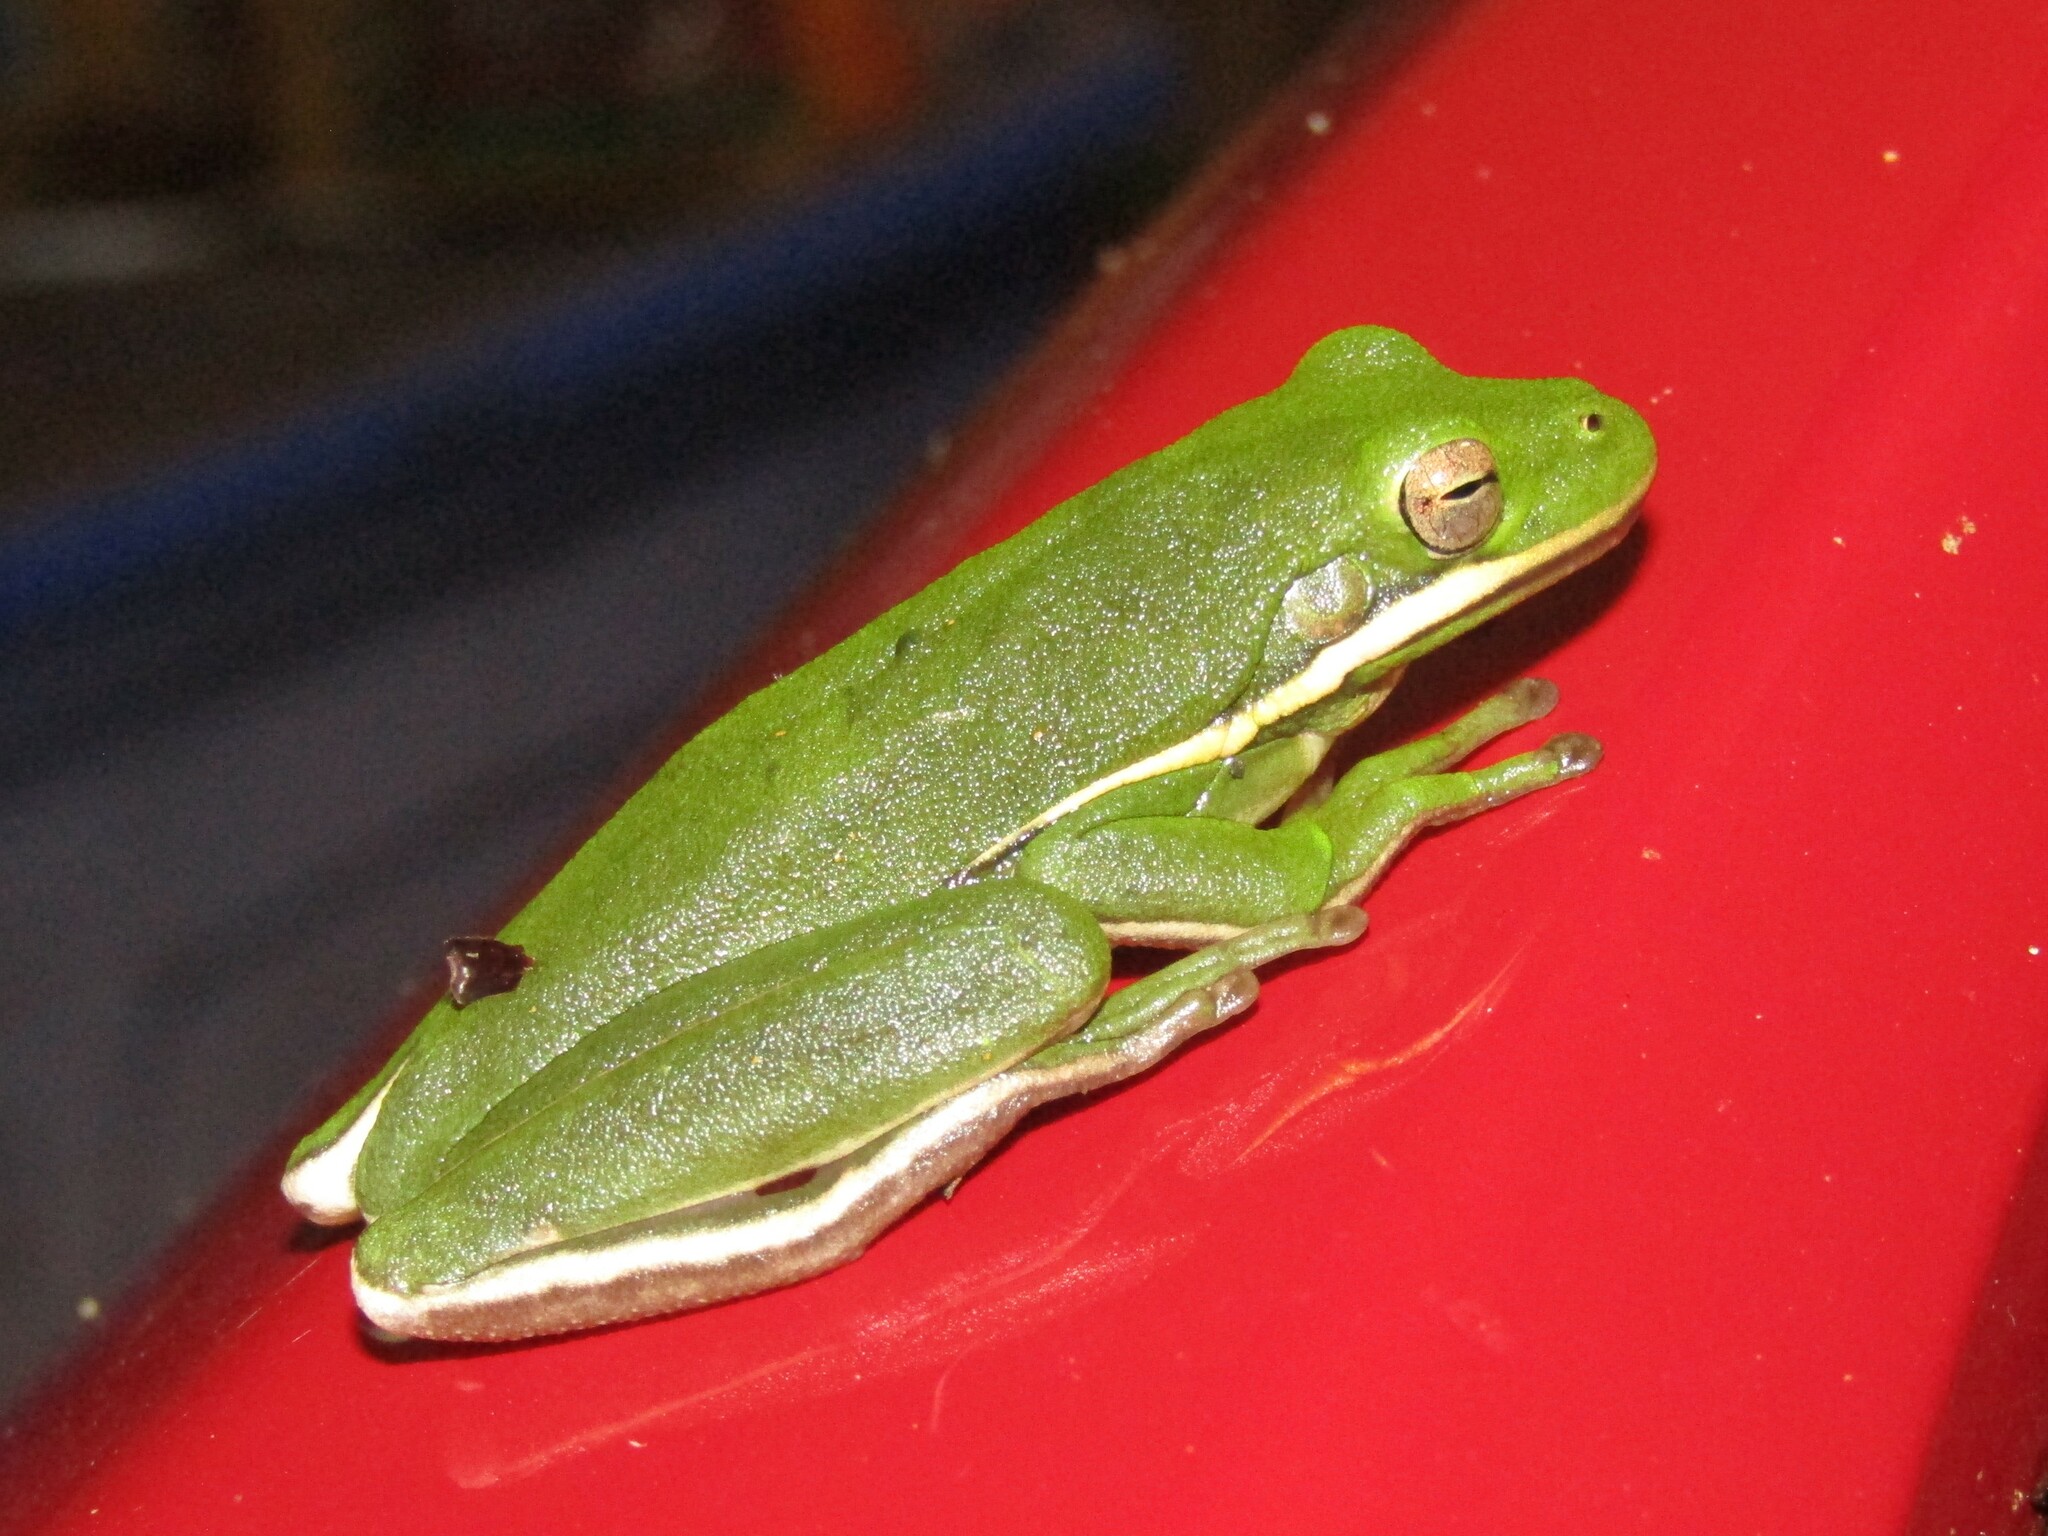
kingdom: Animalia
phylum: Chordata
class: Amphibia
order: Anura
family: Hylidae
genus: Dryophytes
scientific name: Dryophytes cinereus
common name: Green treefrog
